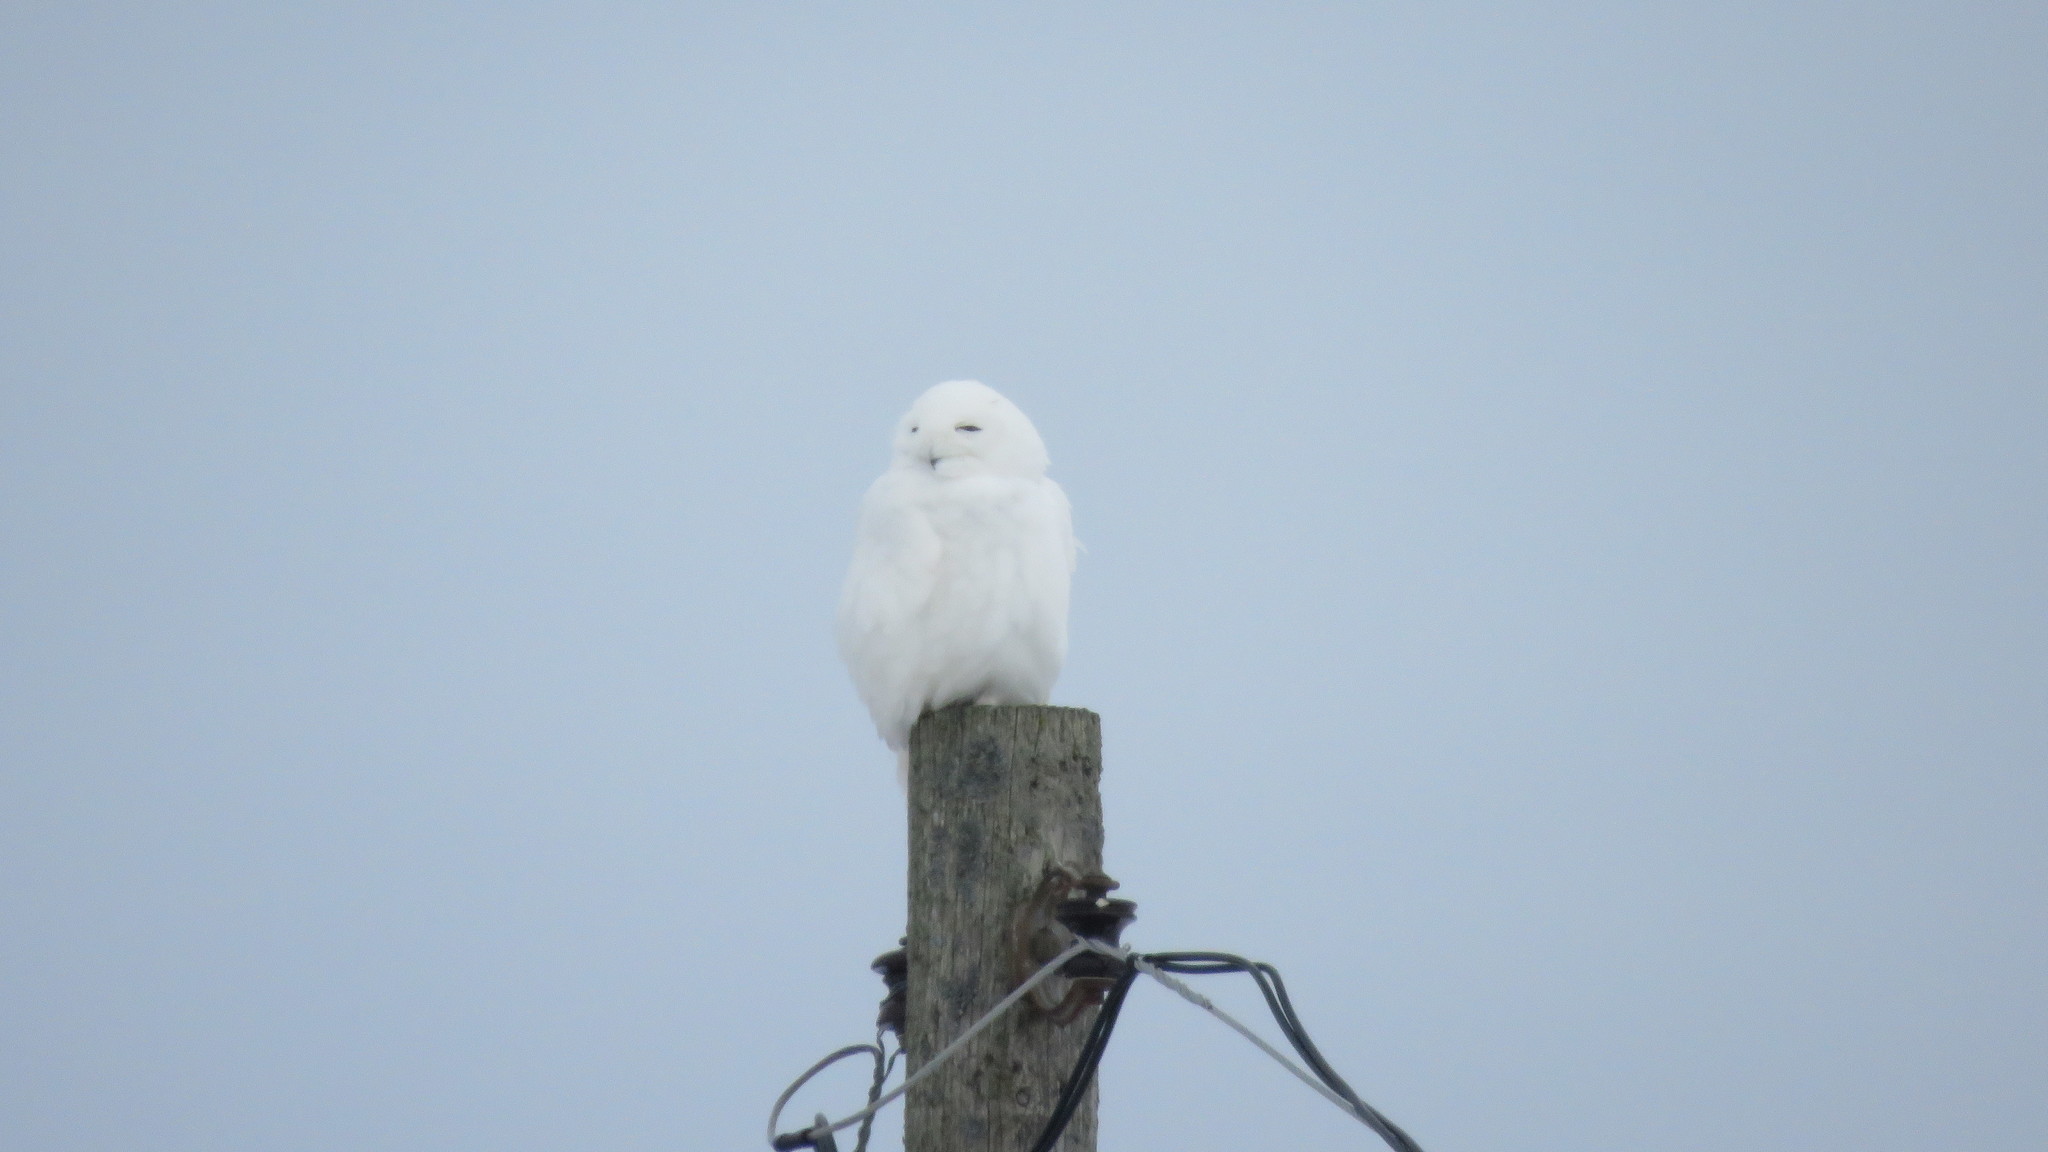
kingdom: Animalia
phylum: Chordata
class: Aves
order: Strigiformes
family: Strigidae
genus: Bubo
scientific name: Bubo scandiacus
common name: Snowy owl
